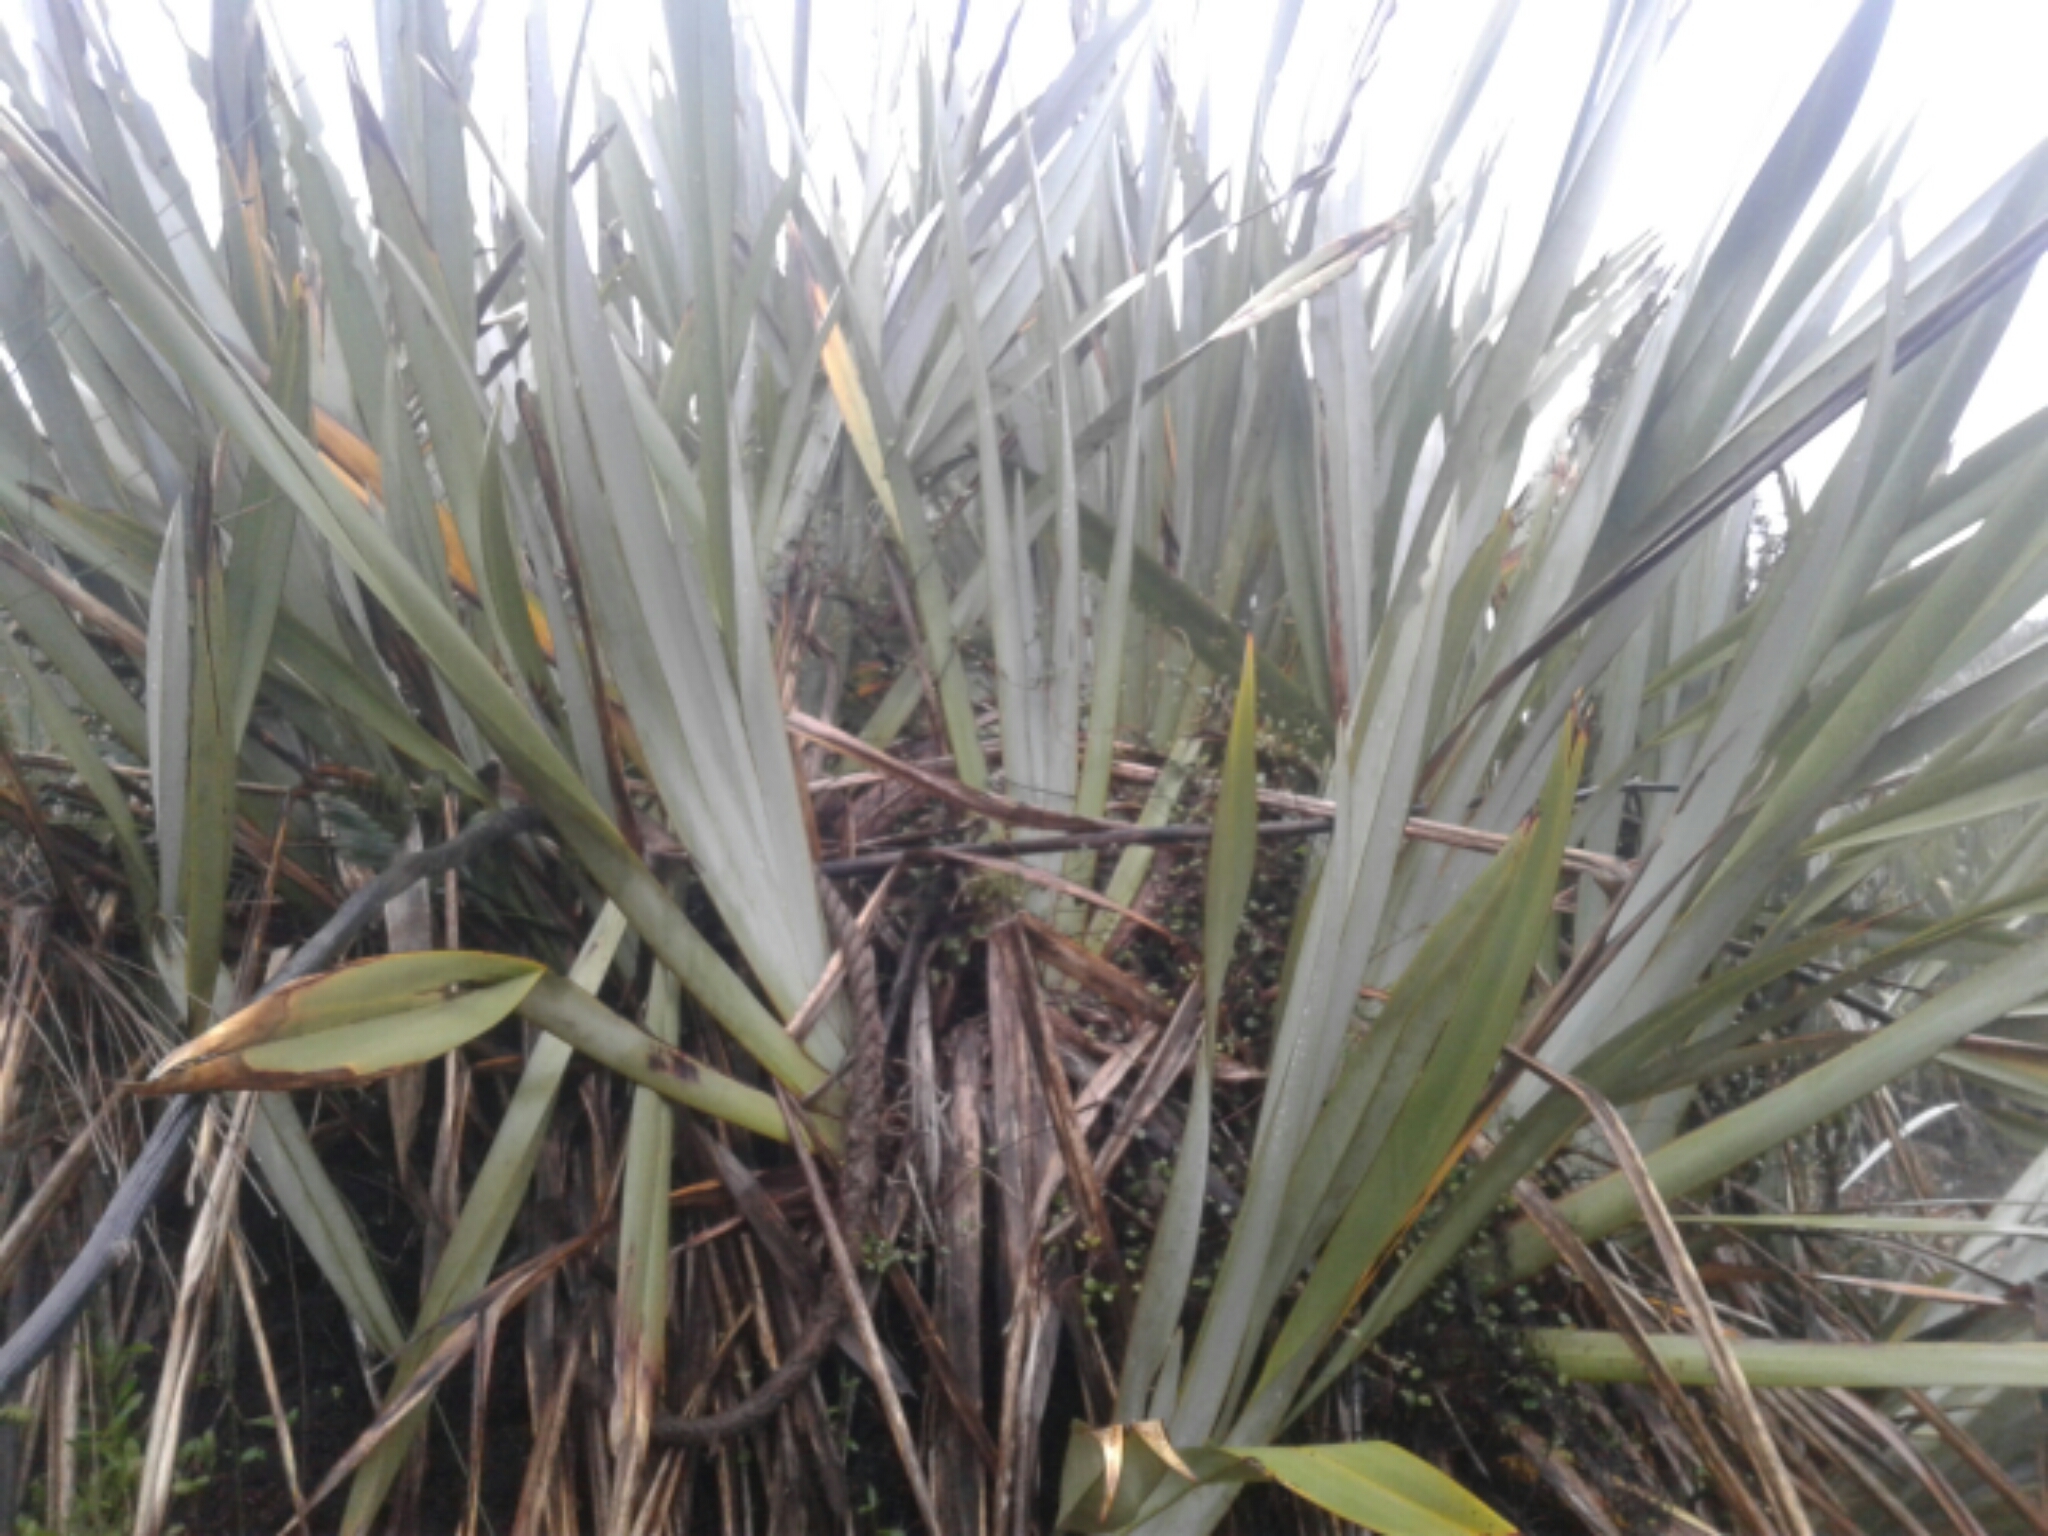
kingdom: Plantae
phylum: Tracheophyta
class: Liliopsida
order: Asparagales
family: Asphodelaceae
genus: Phormium
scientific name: Phormium tenax
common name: New zealand flax
